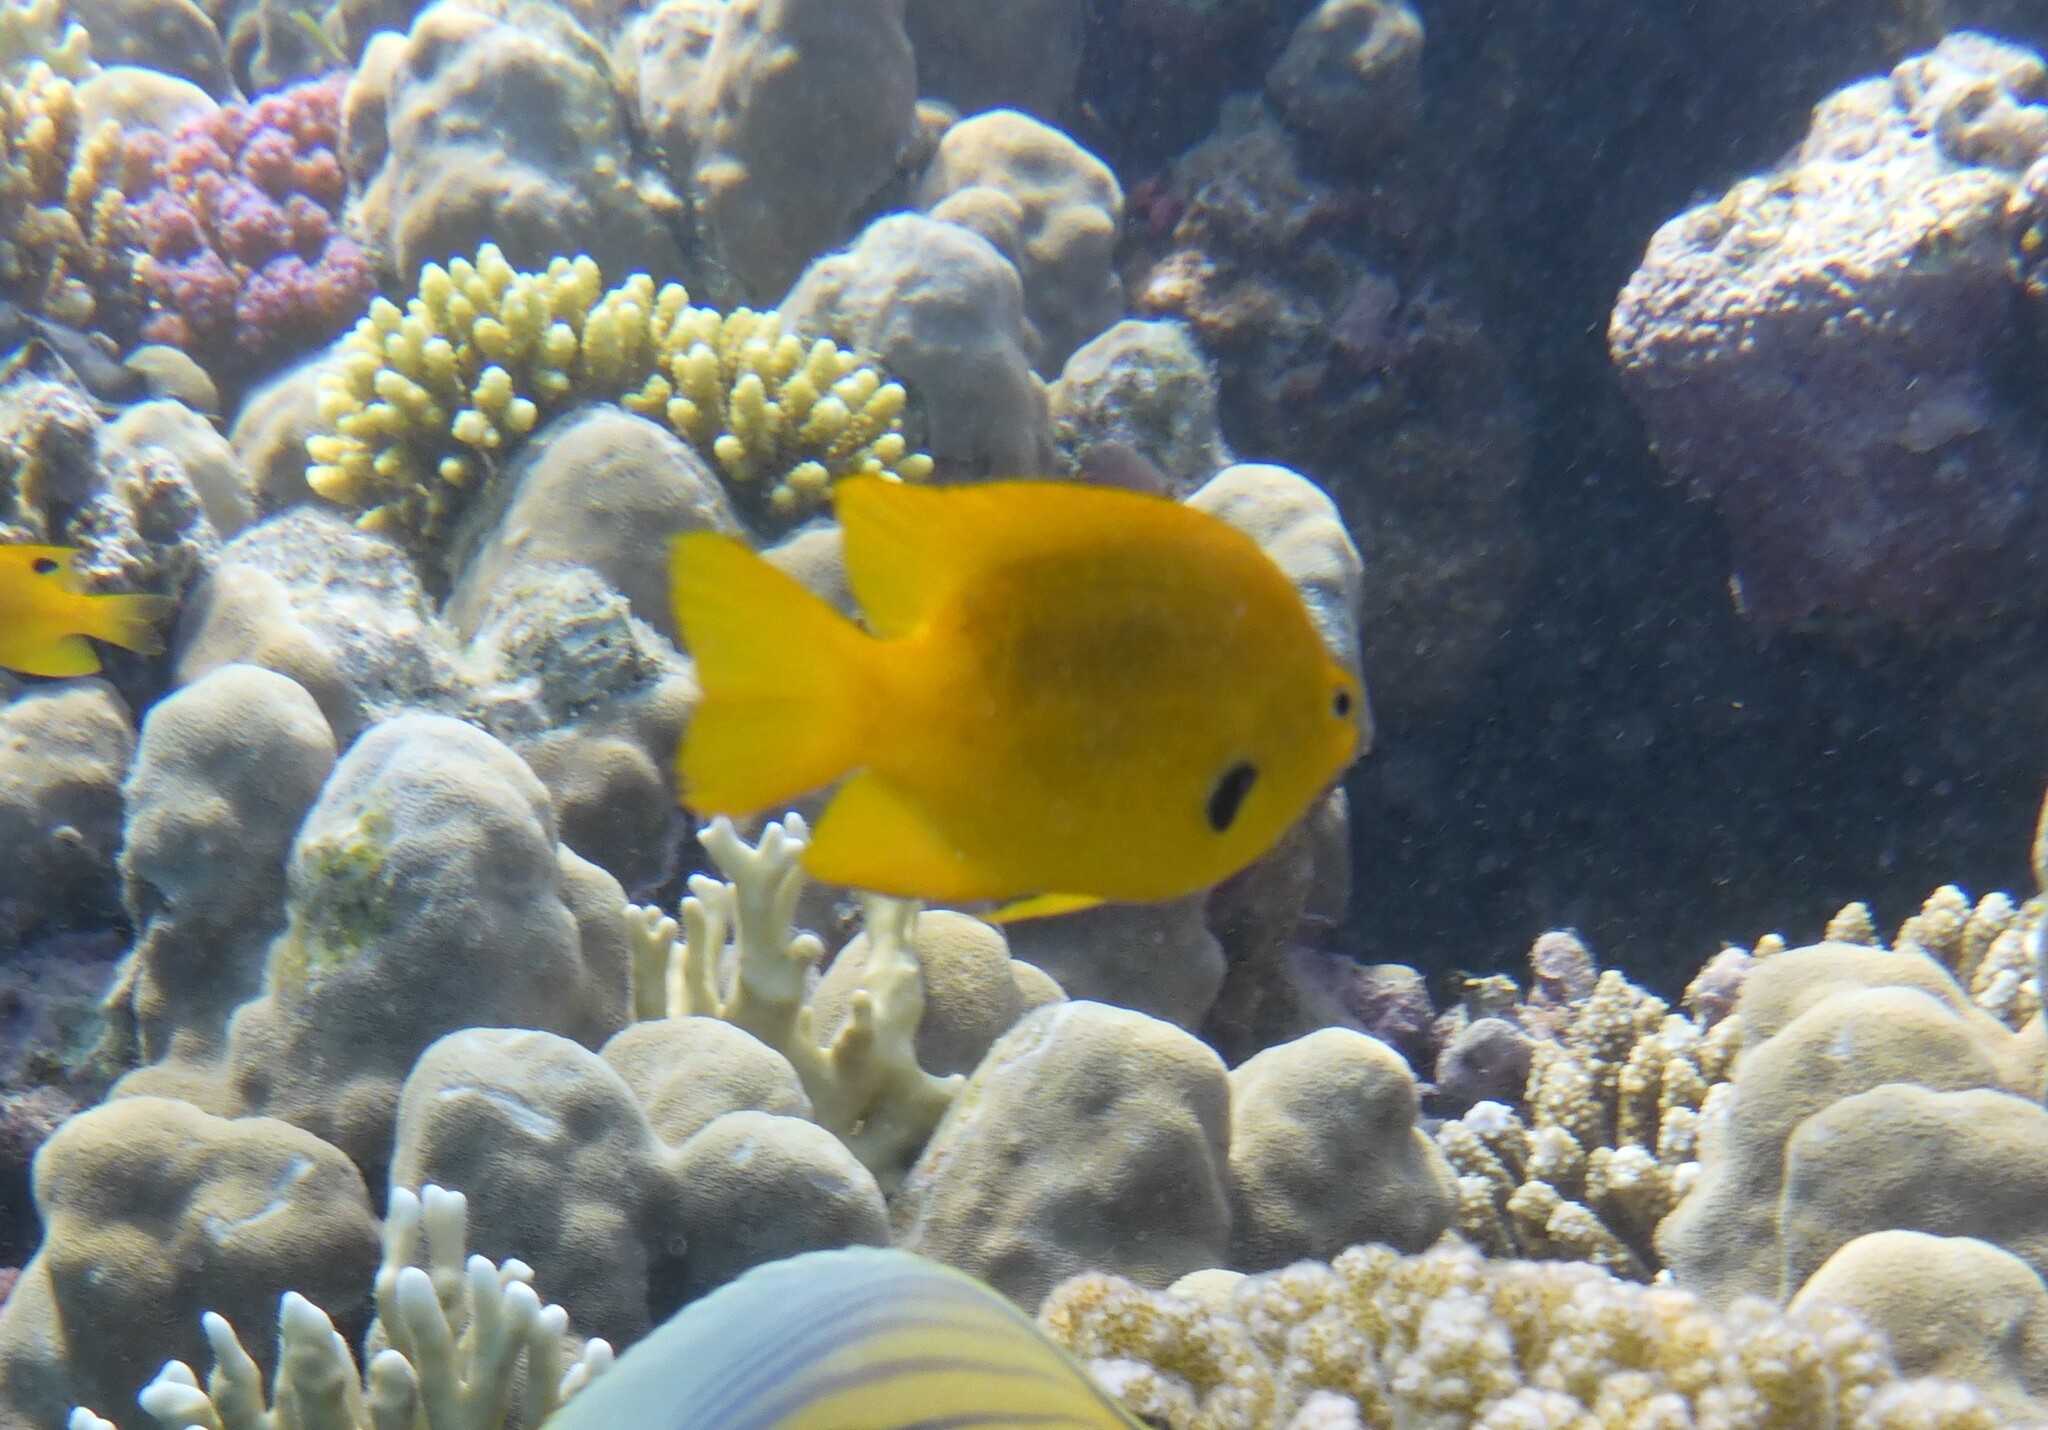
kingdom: Animalia
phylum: Chordata
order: Perciformes
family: Pomacentridae
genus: Pomacentrus
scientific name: Pomacentrus sulfureus
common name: Sulfur damsel
